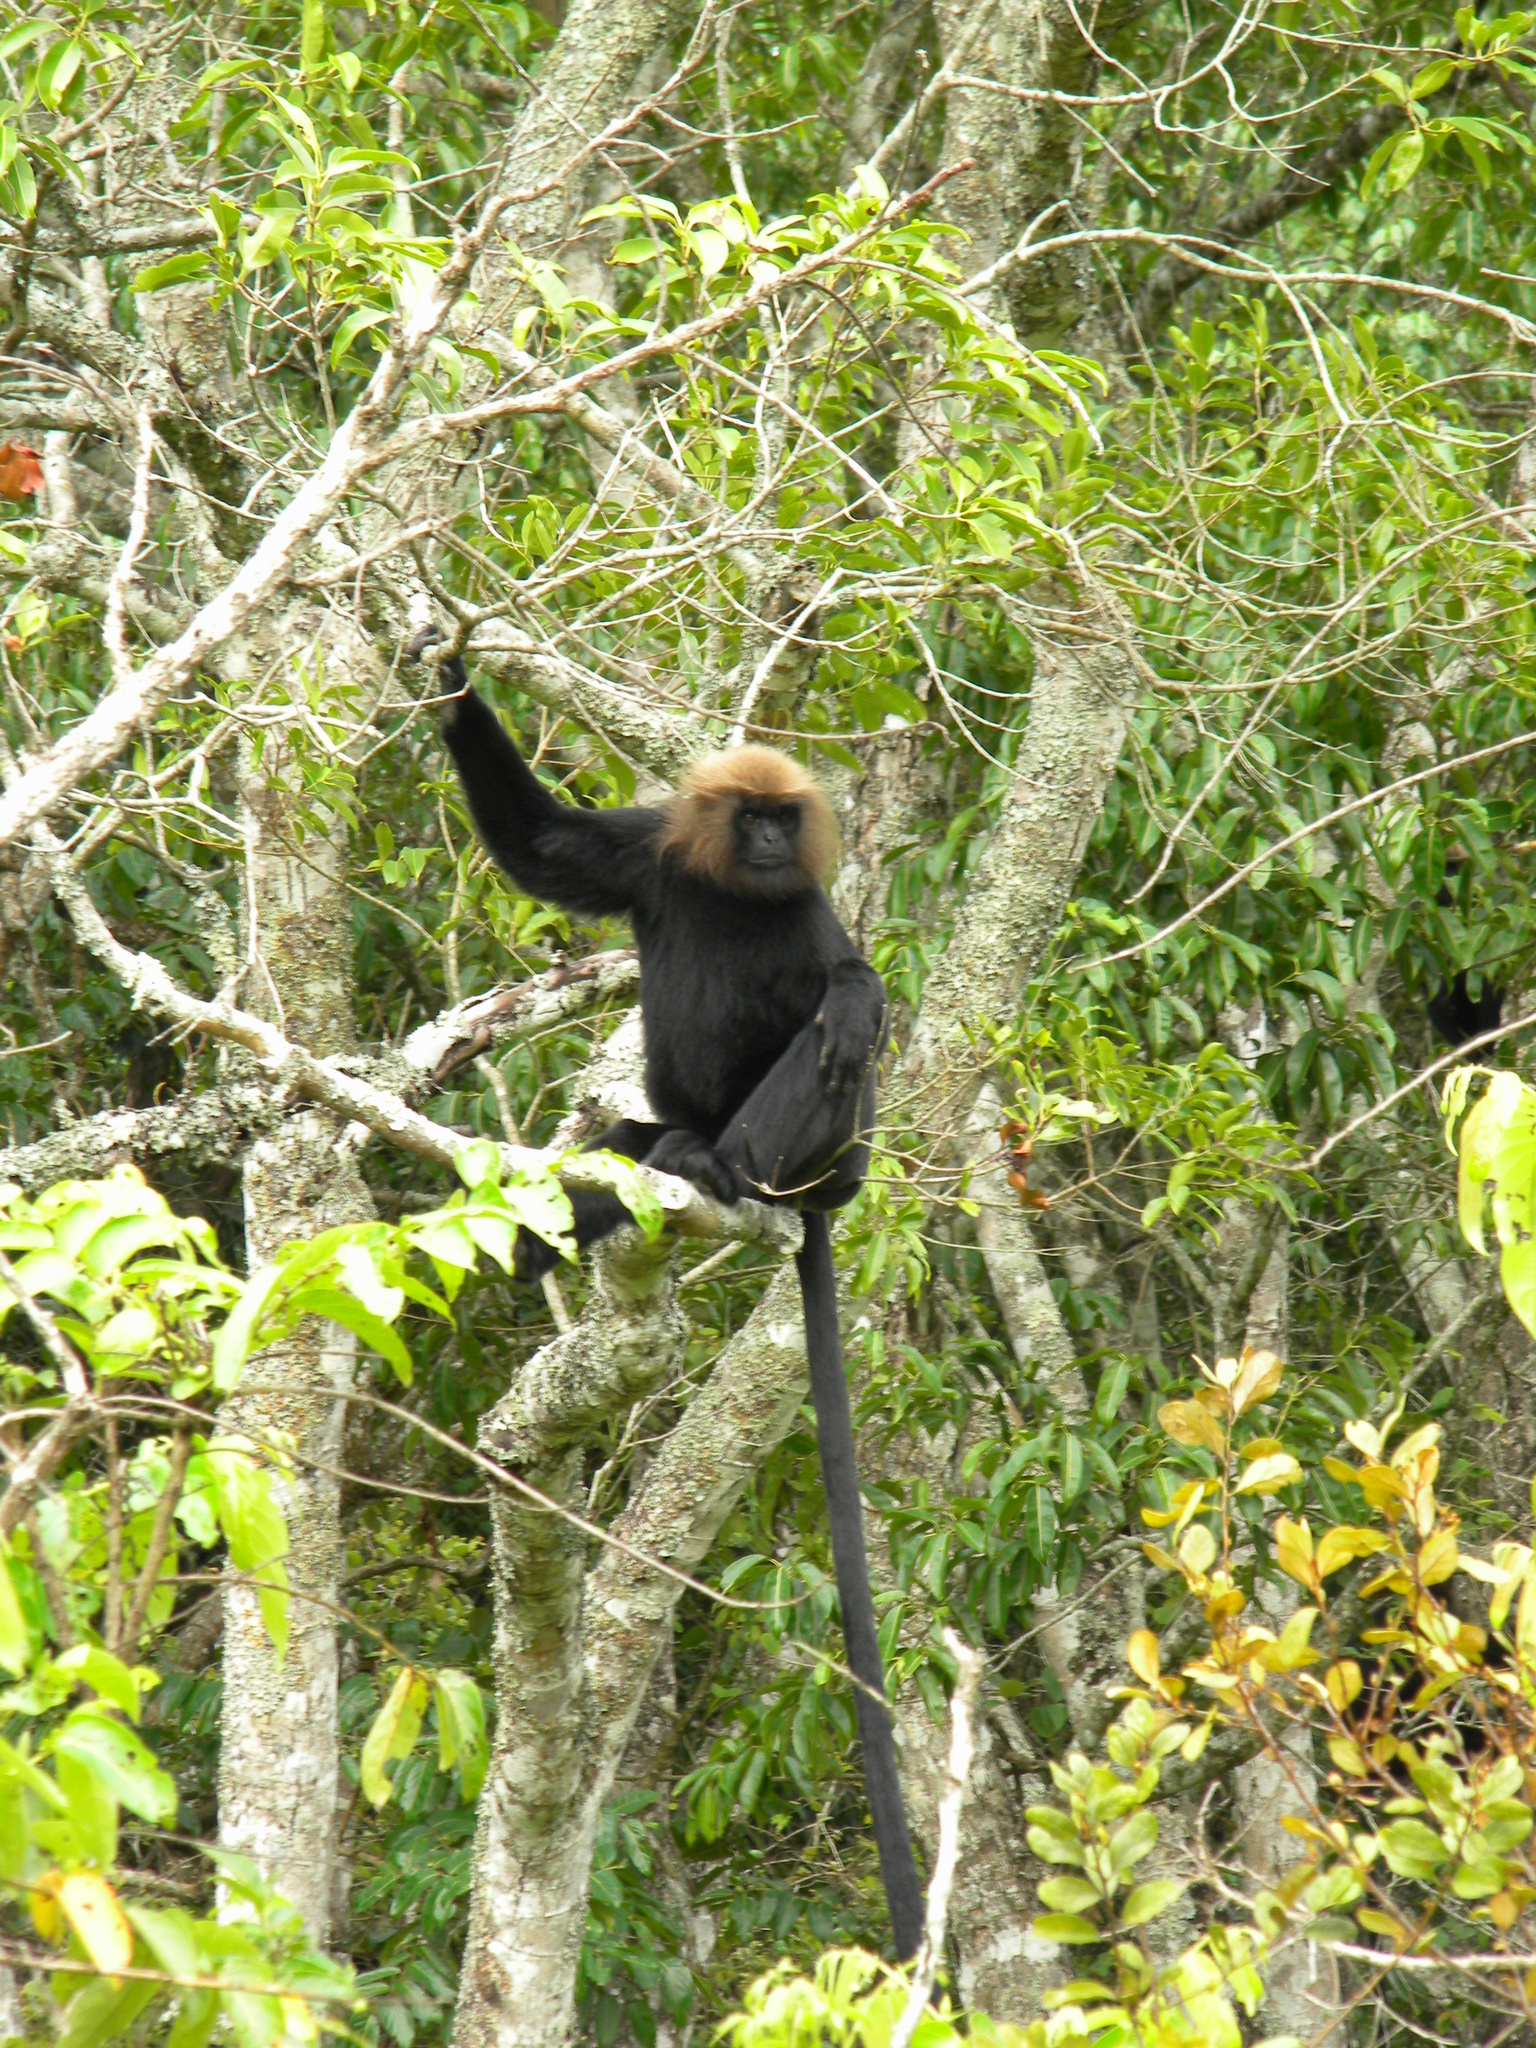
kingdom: Animalia
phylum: Chordata
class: Mammalia
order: Primates
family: Cercopithecidae
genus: Semnopithecus
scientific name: Semnopithecus johnii
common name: Nilgiri langur
